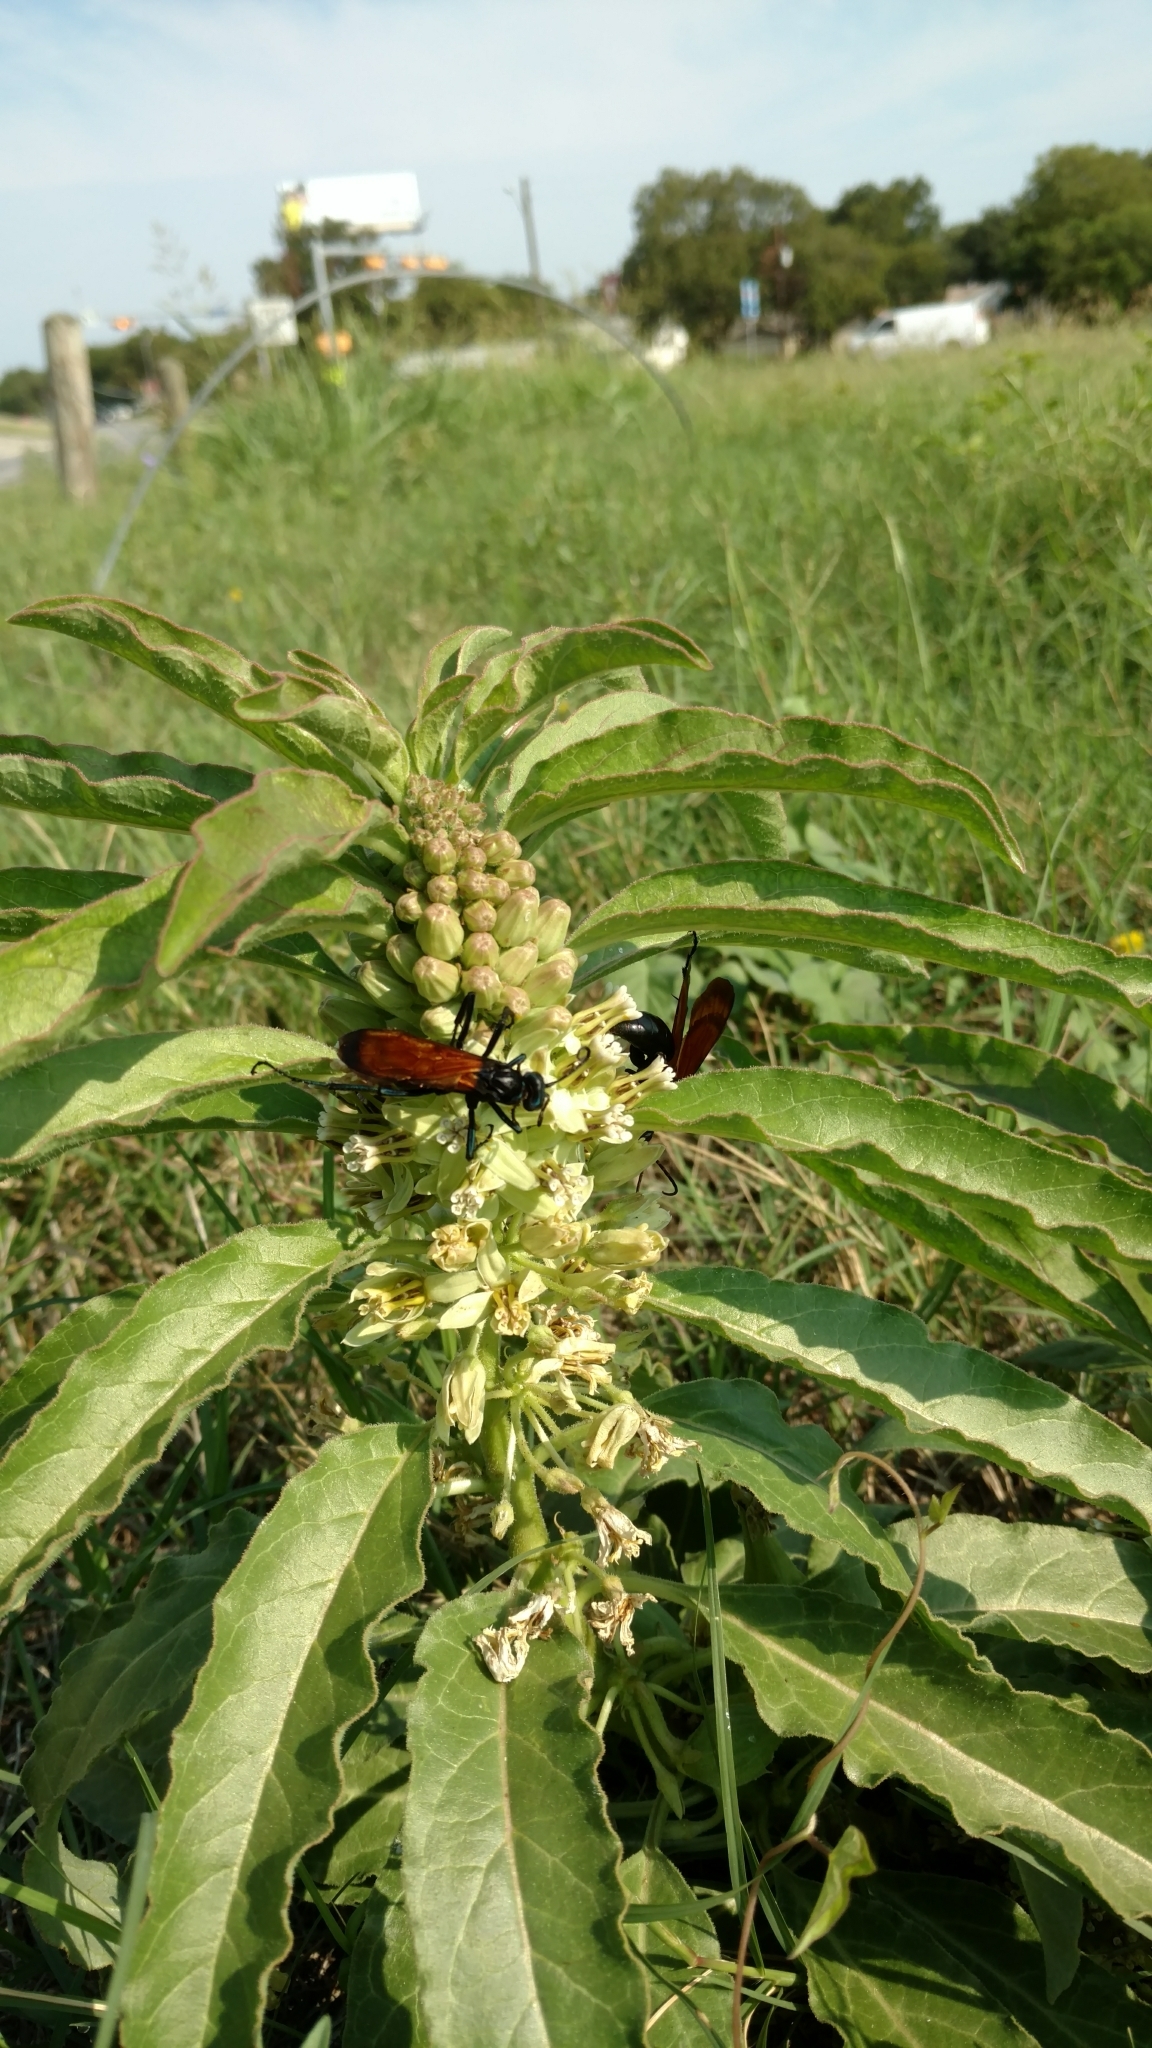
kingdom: Animalia
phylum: Arthropoda
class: Insecta
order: Hymenoptera
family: Pompilidae
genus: Pepsis
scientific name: Pepsis thisbe
